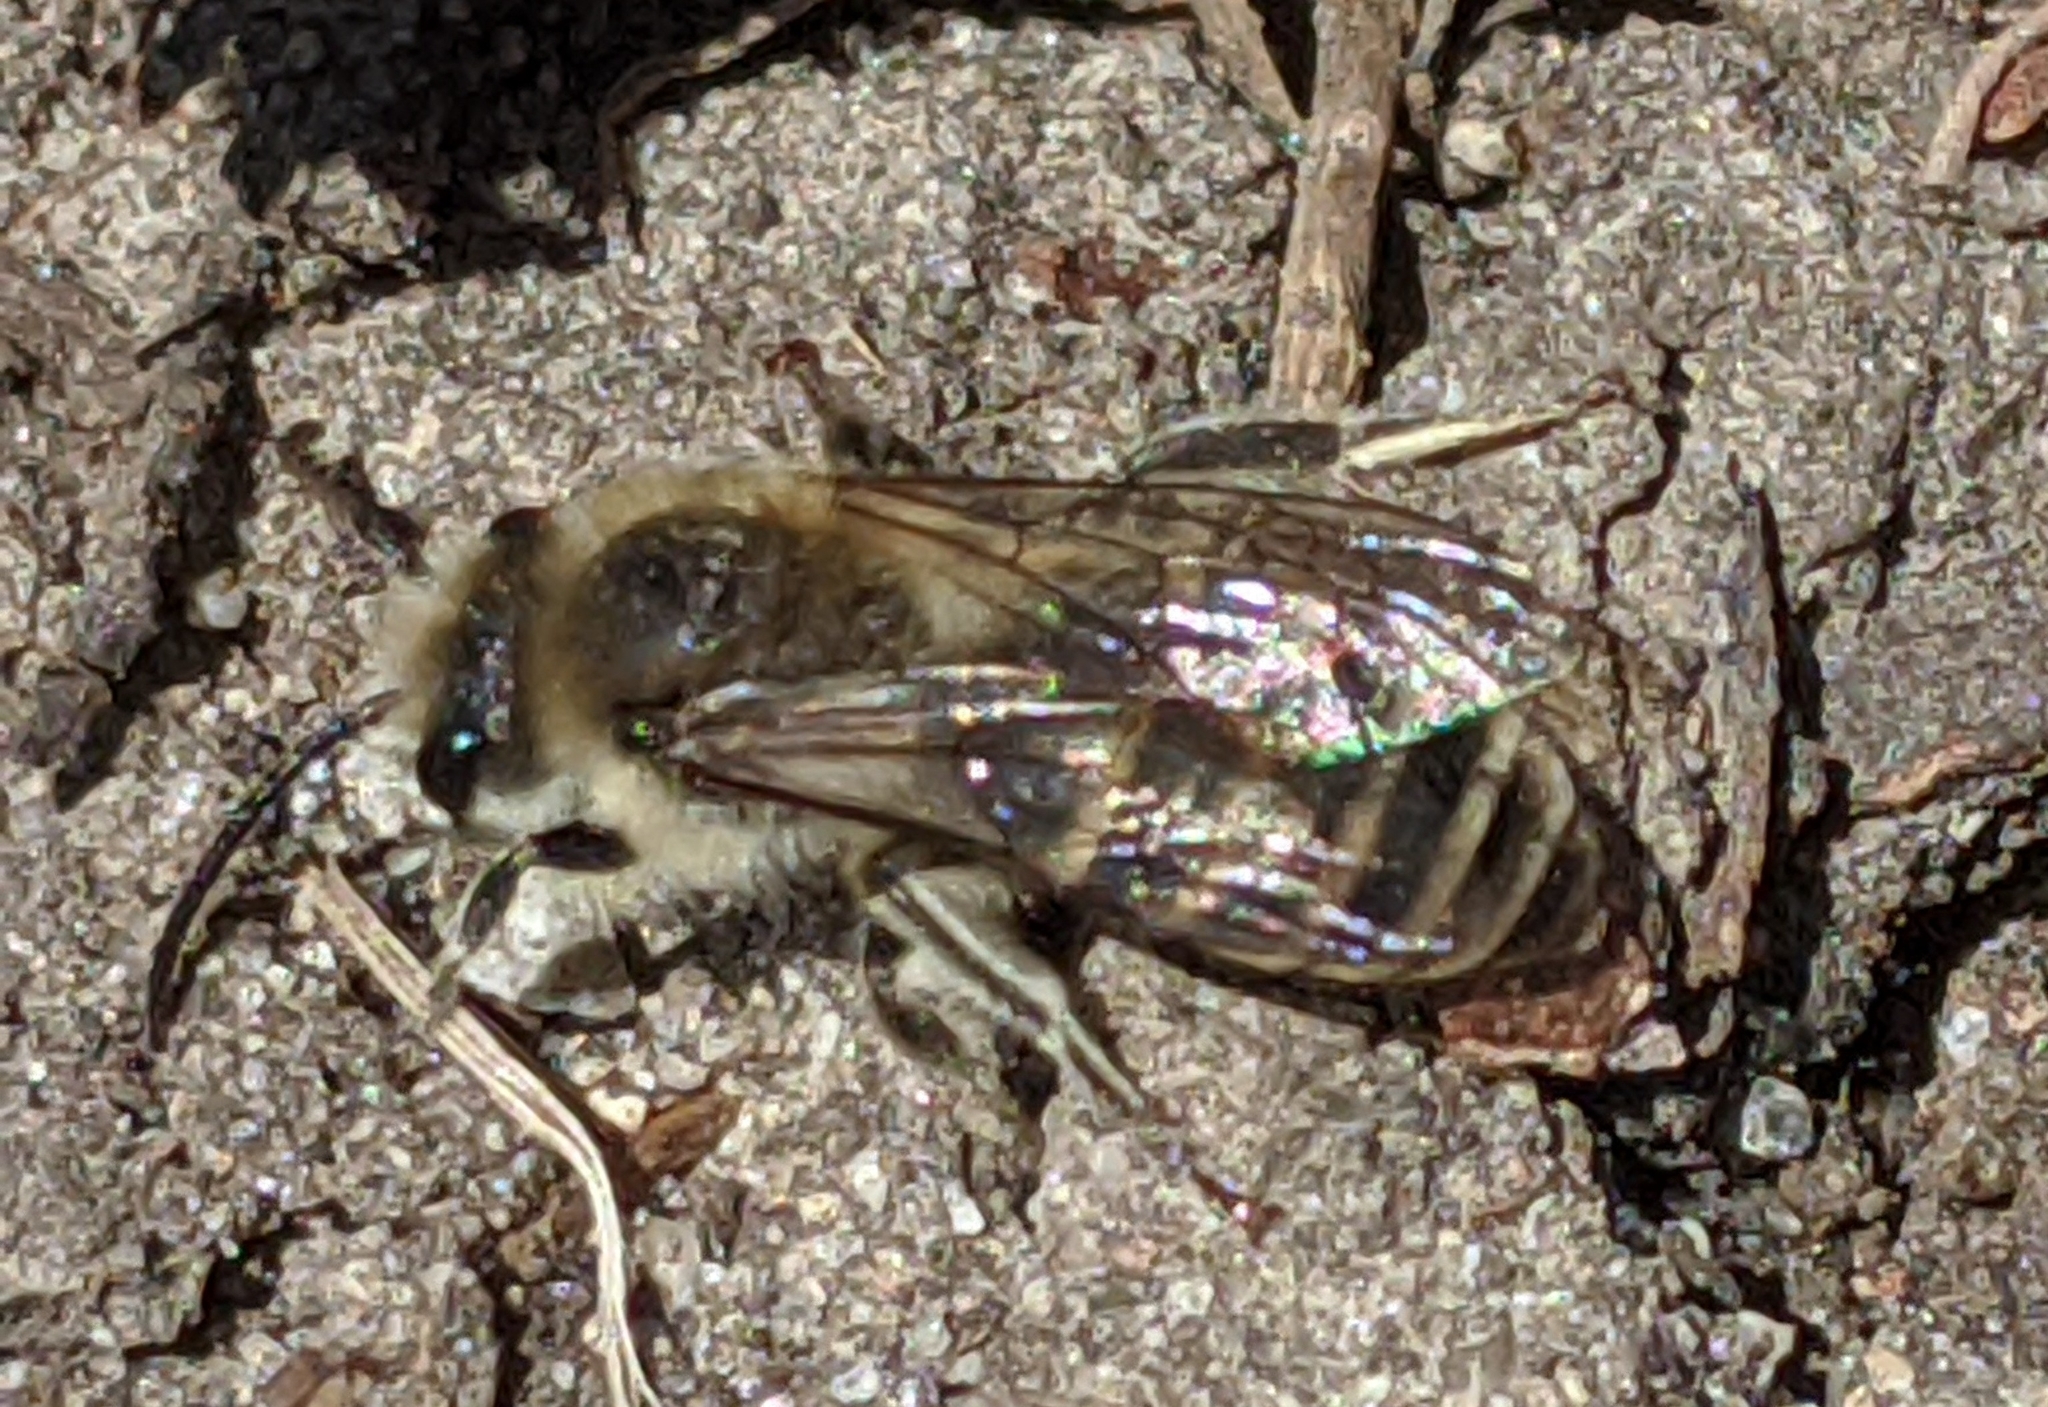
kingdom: Animalia
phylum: Arthropoda
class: Insecta
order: Hymenoptera
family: Colletidae
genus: Colletes
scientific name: Colletes inaequalis
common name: Unequal cellophane bee
